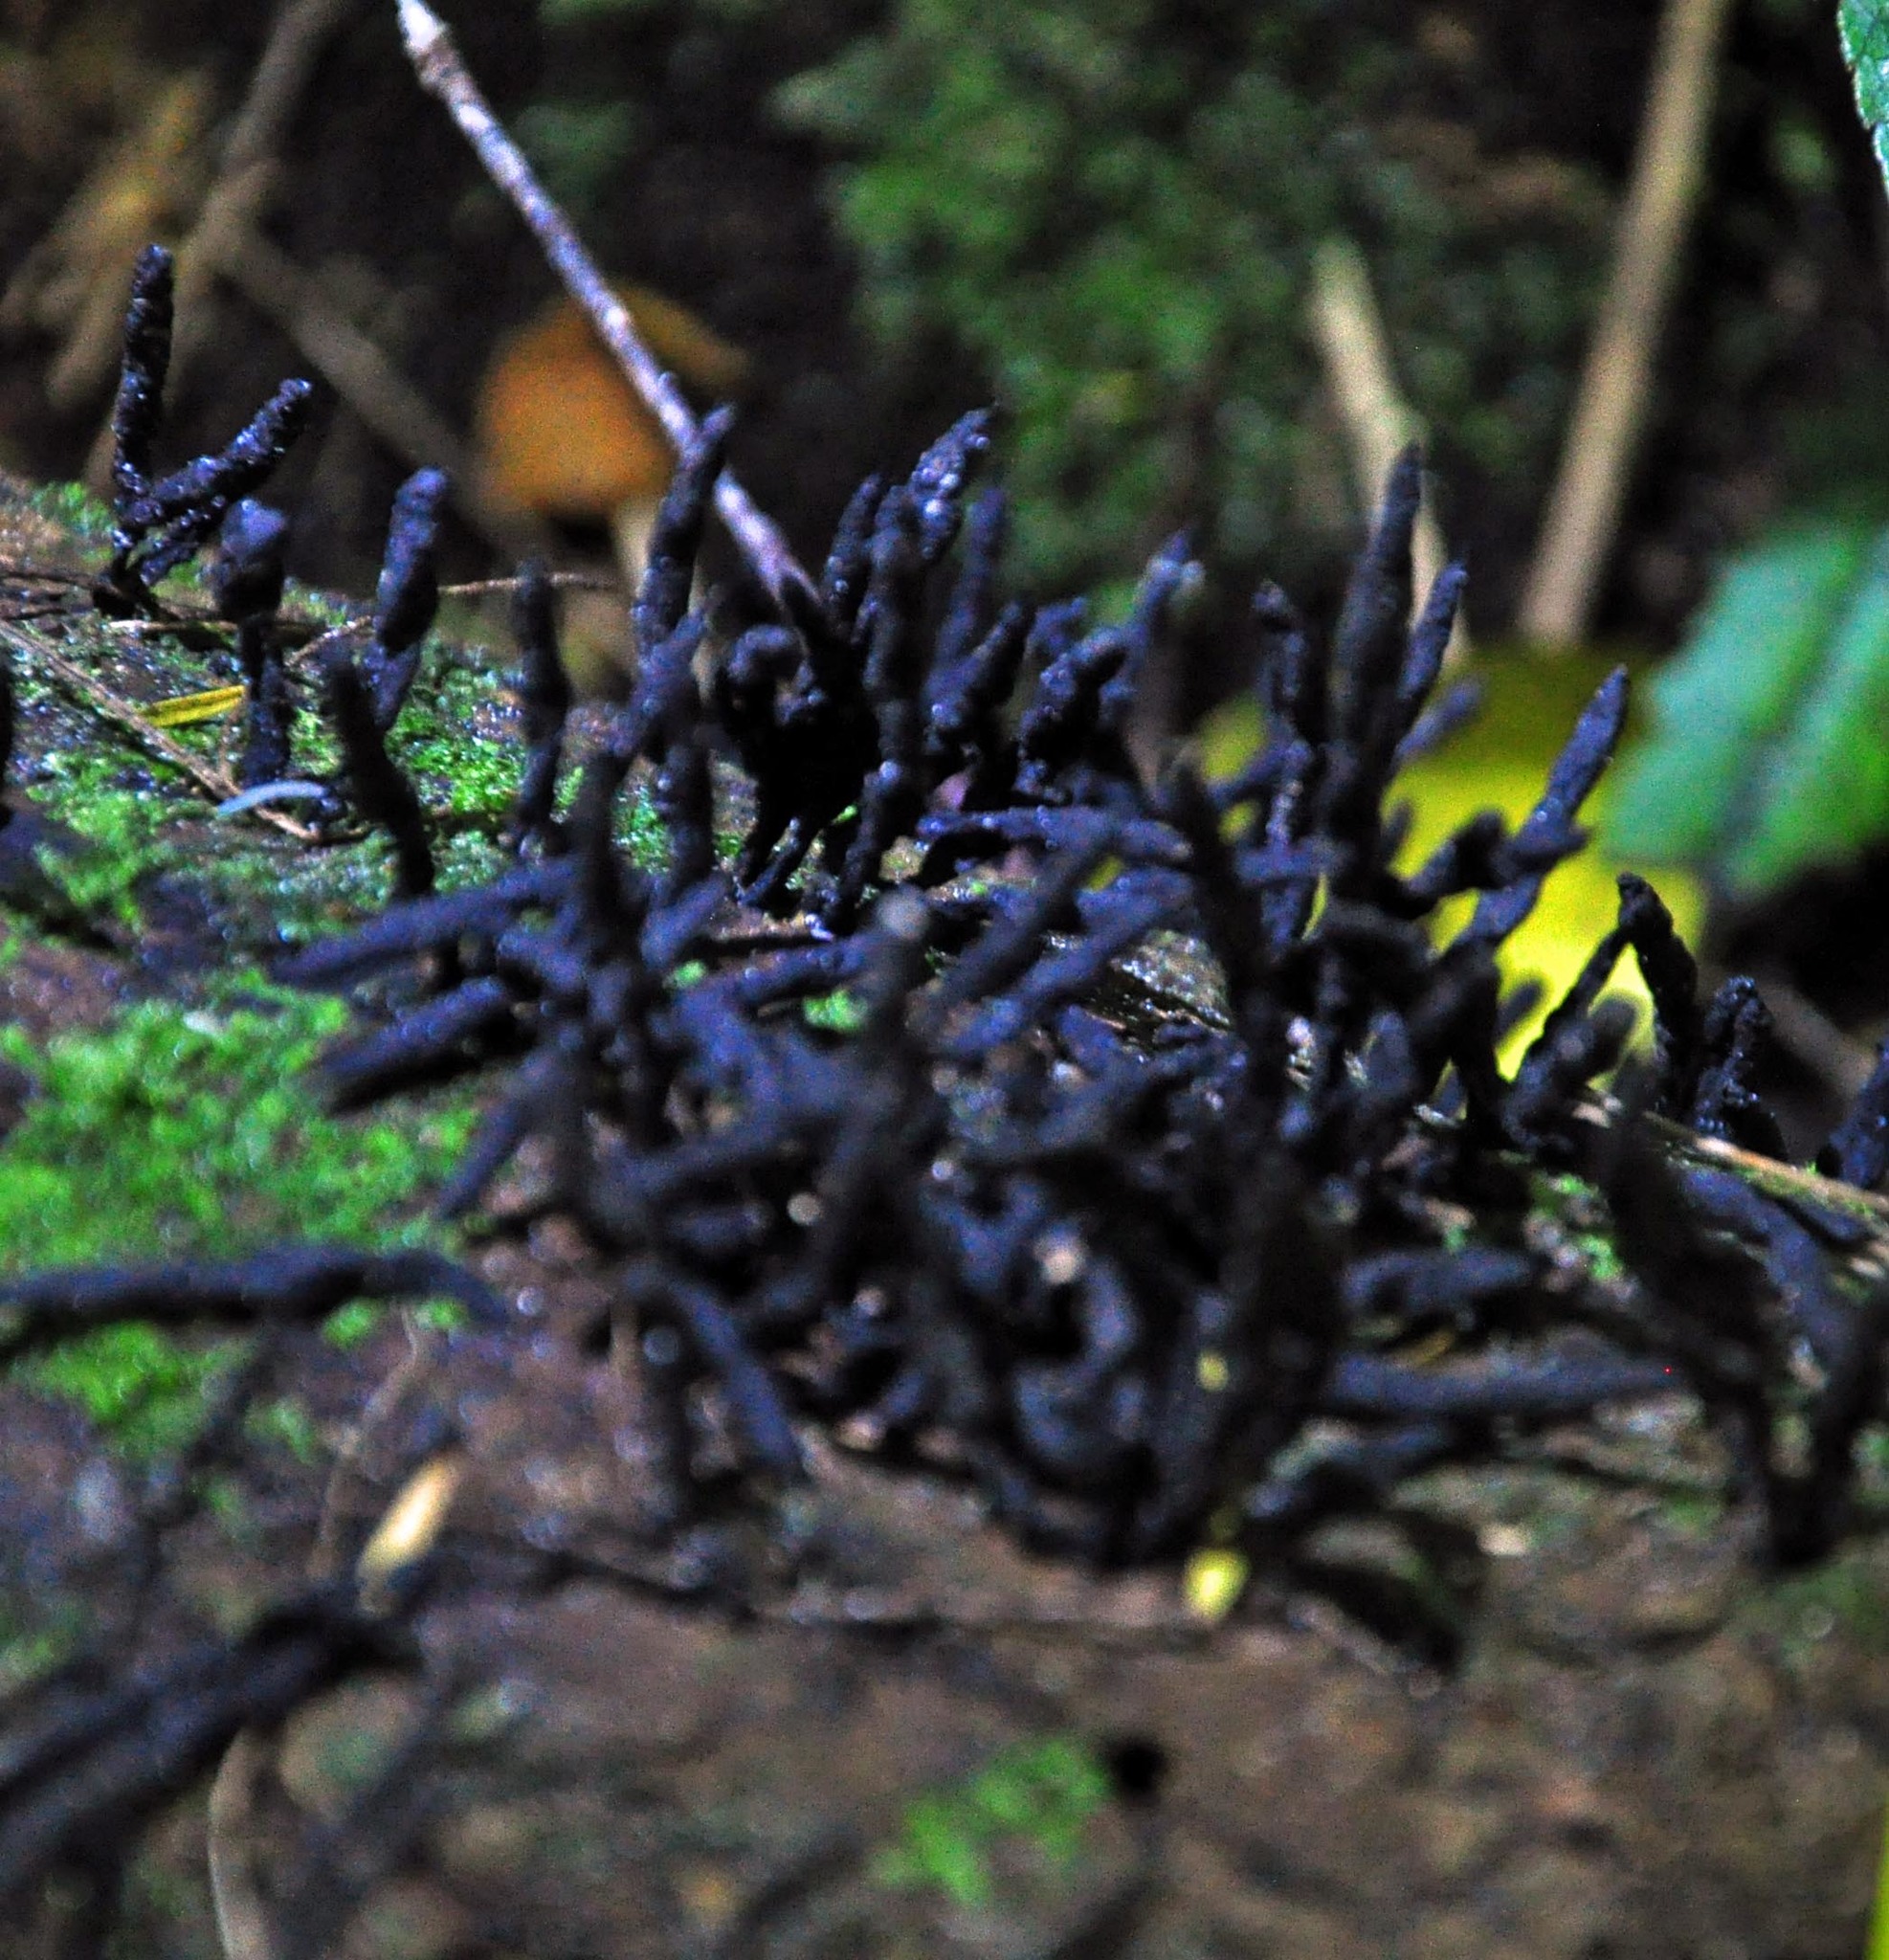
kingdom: Fungi
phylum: Ascomycota
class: Sordariomycetes
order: Xylariales
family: Xylariaceae
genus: Xylaria
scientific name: Xylaria arbuscula
